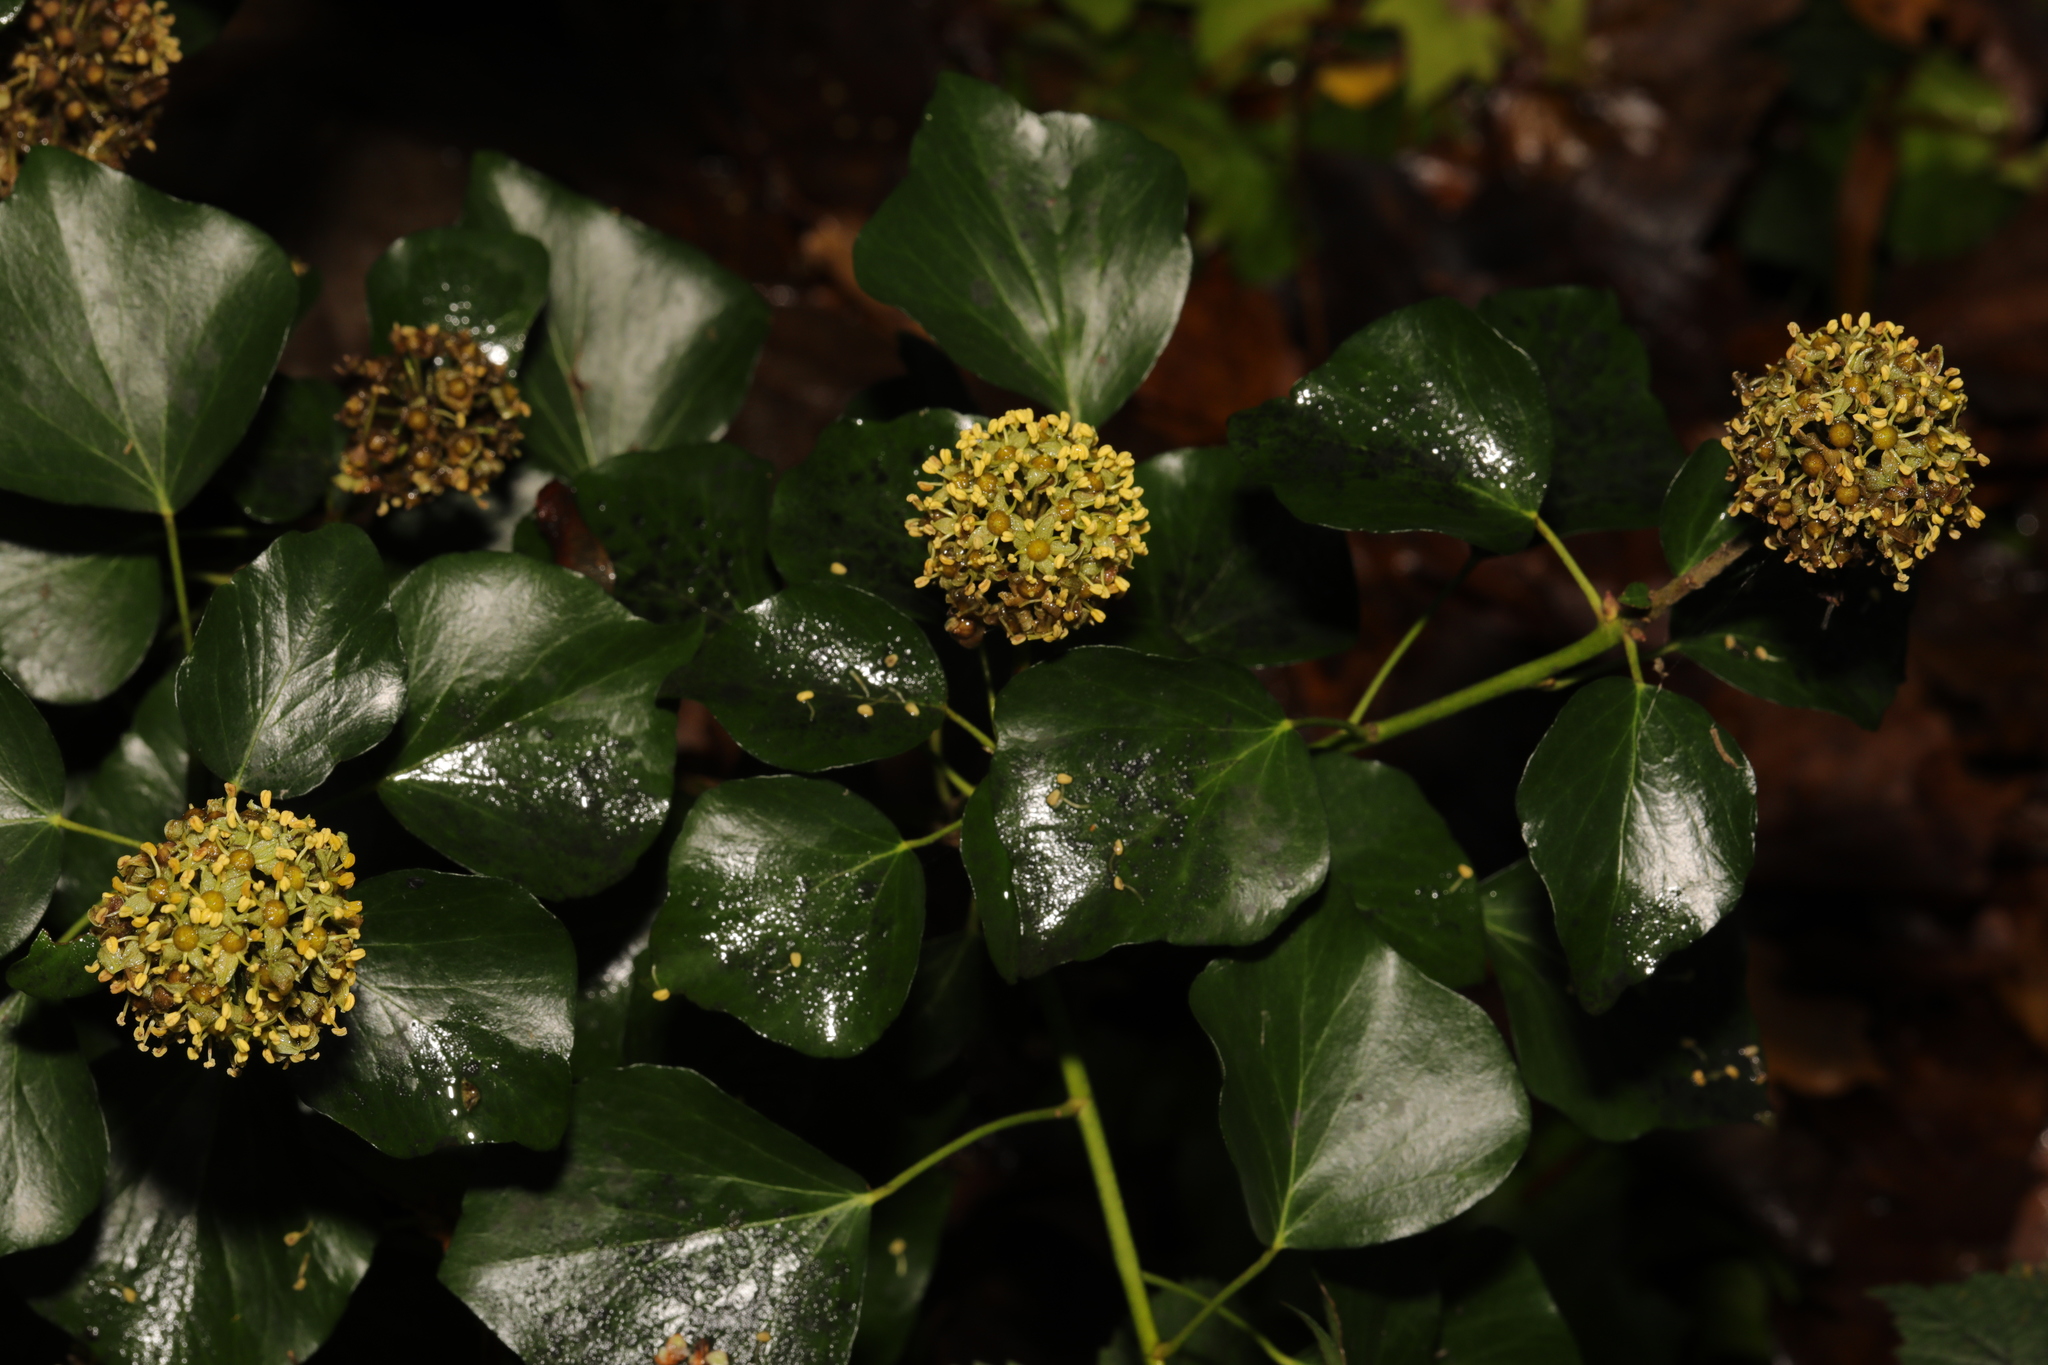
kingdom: Plantae
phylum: Tracheophyta
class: Magnoliopsida
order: Apiales
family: Araliaceae
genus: Hedera
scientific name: Hedera helix
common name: Ivy
